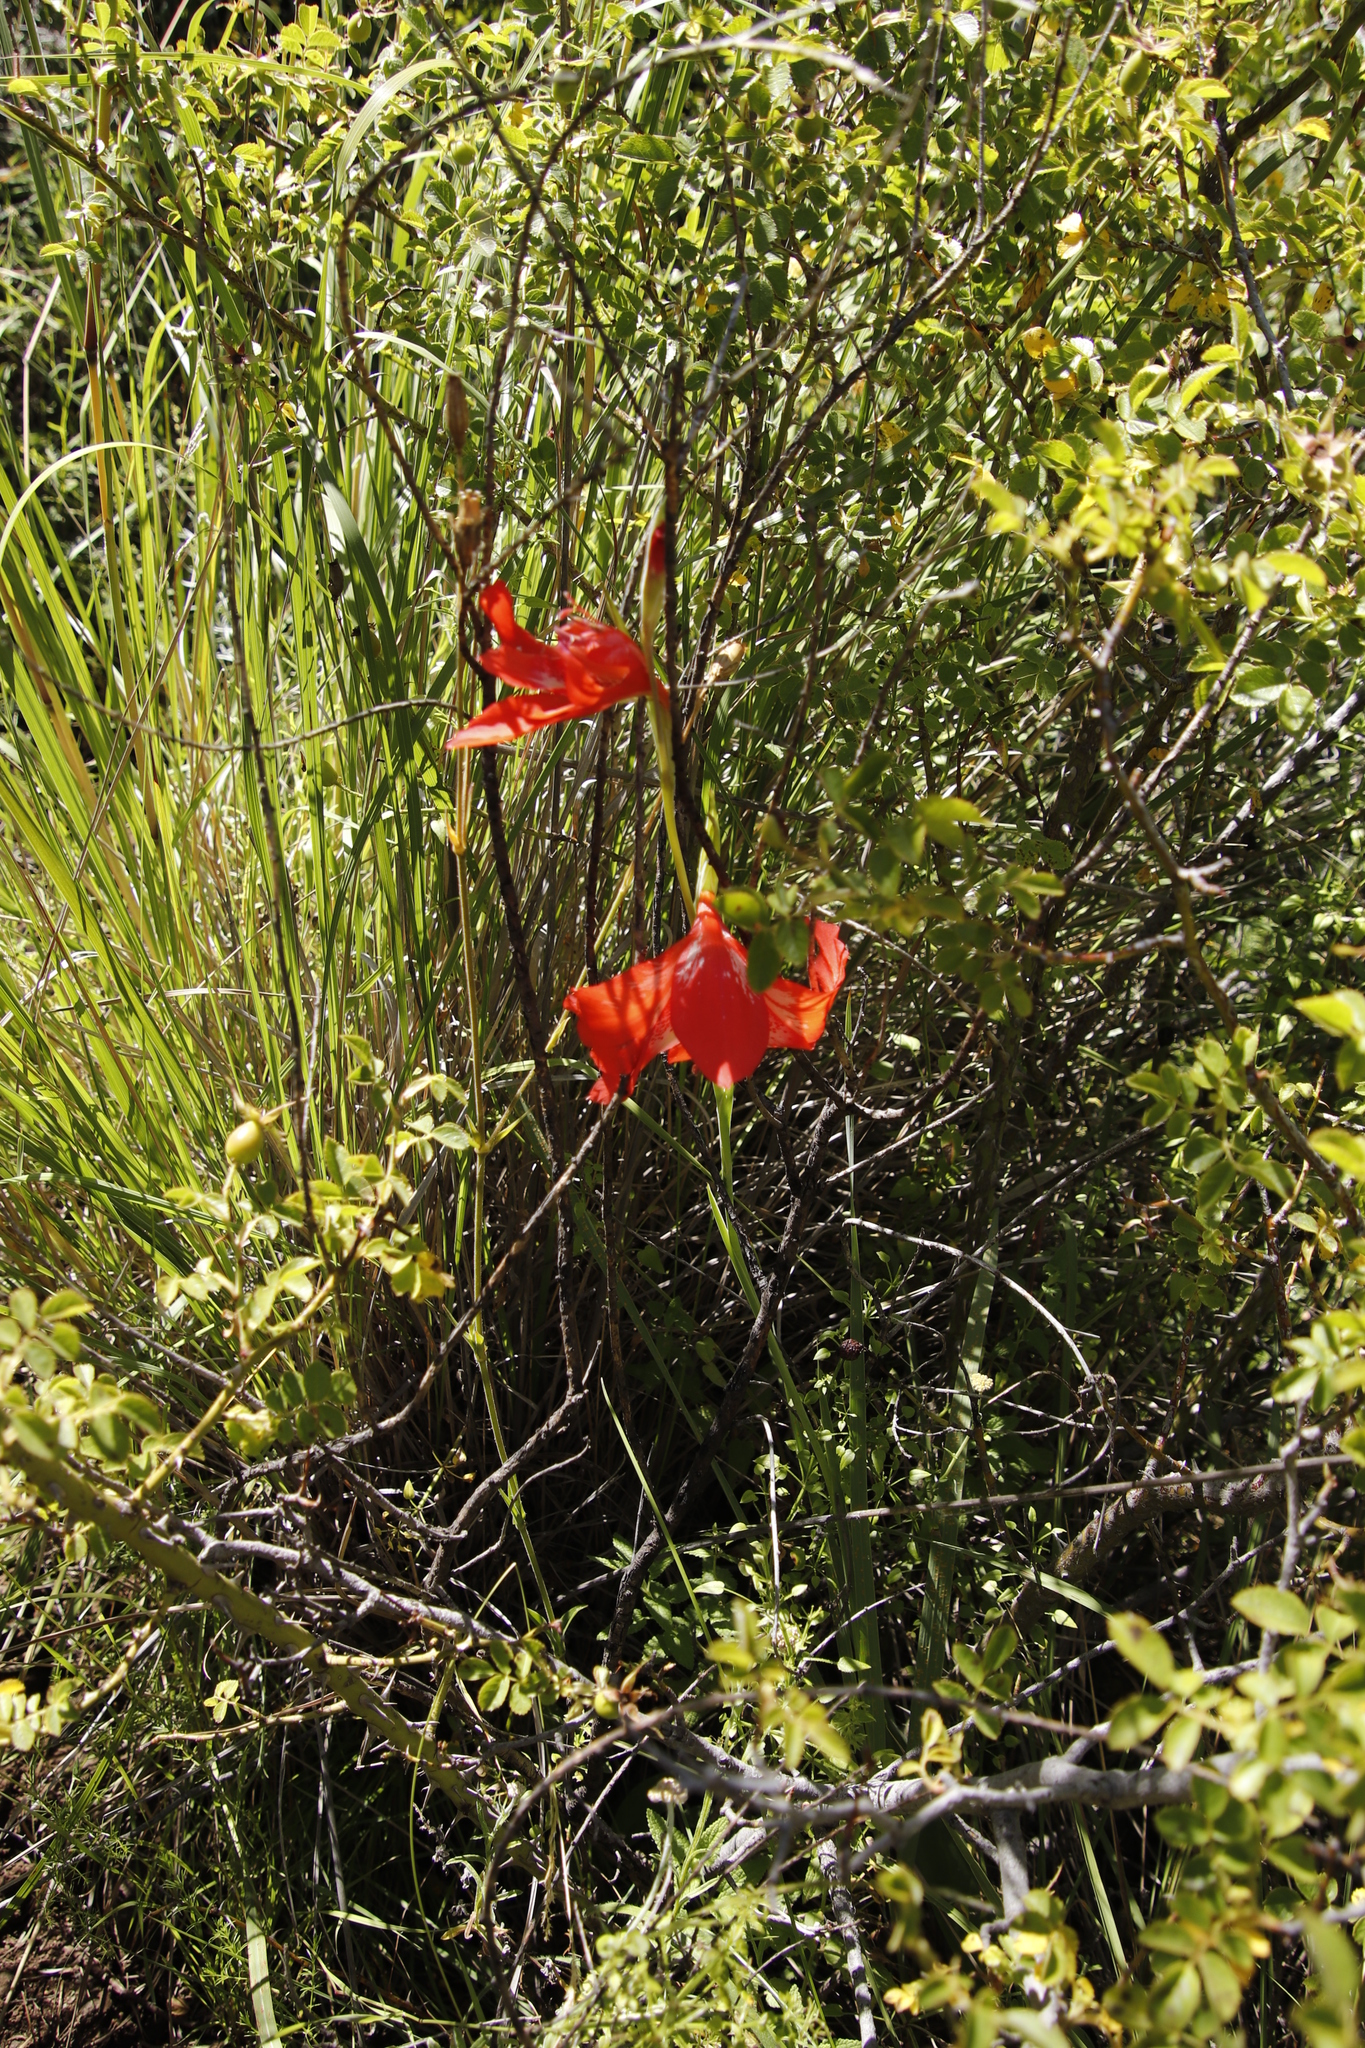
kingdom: Plantae
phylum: Tracheophyta
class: Liliopsida
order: Asparagales
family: Iridaceae
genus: Gladiolus
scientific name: Gladiolus saundersii
